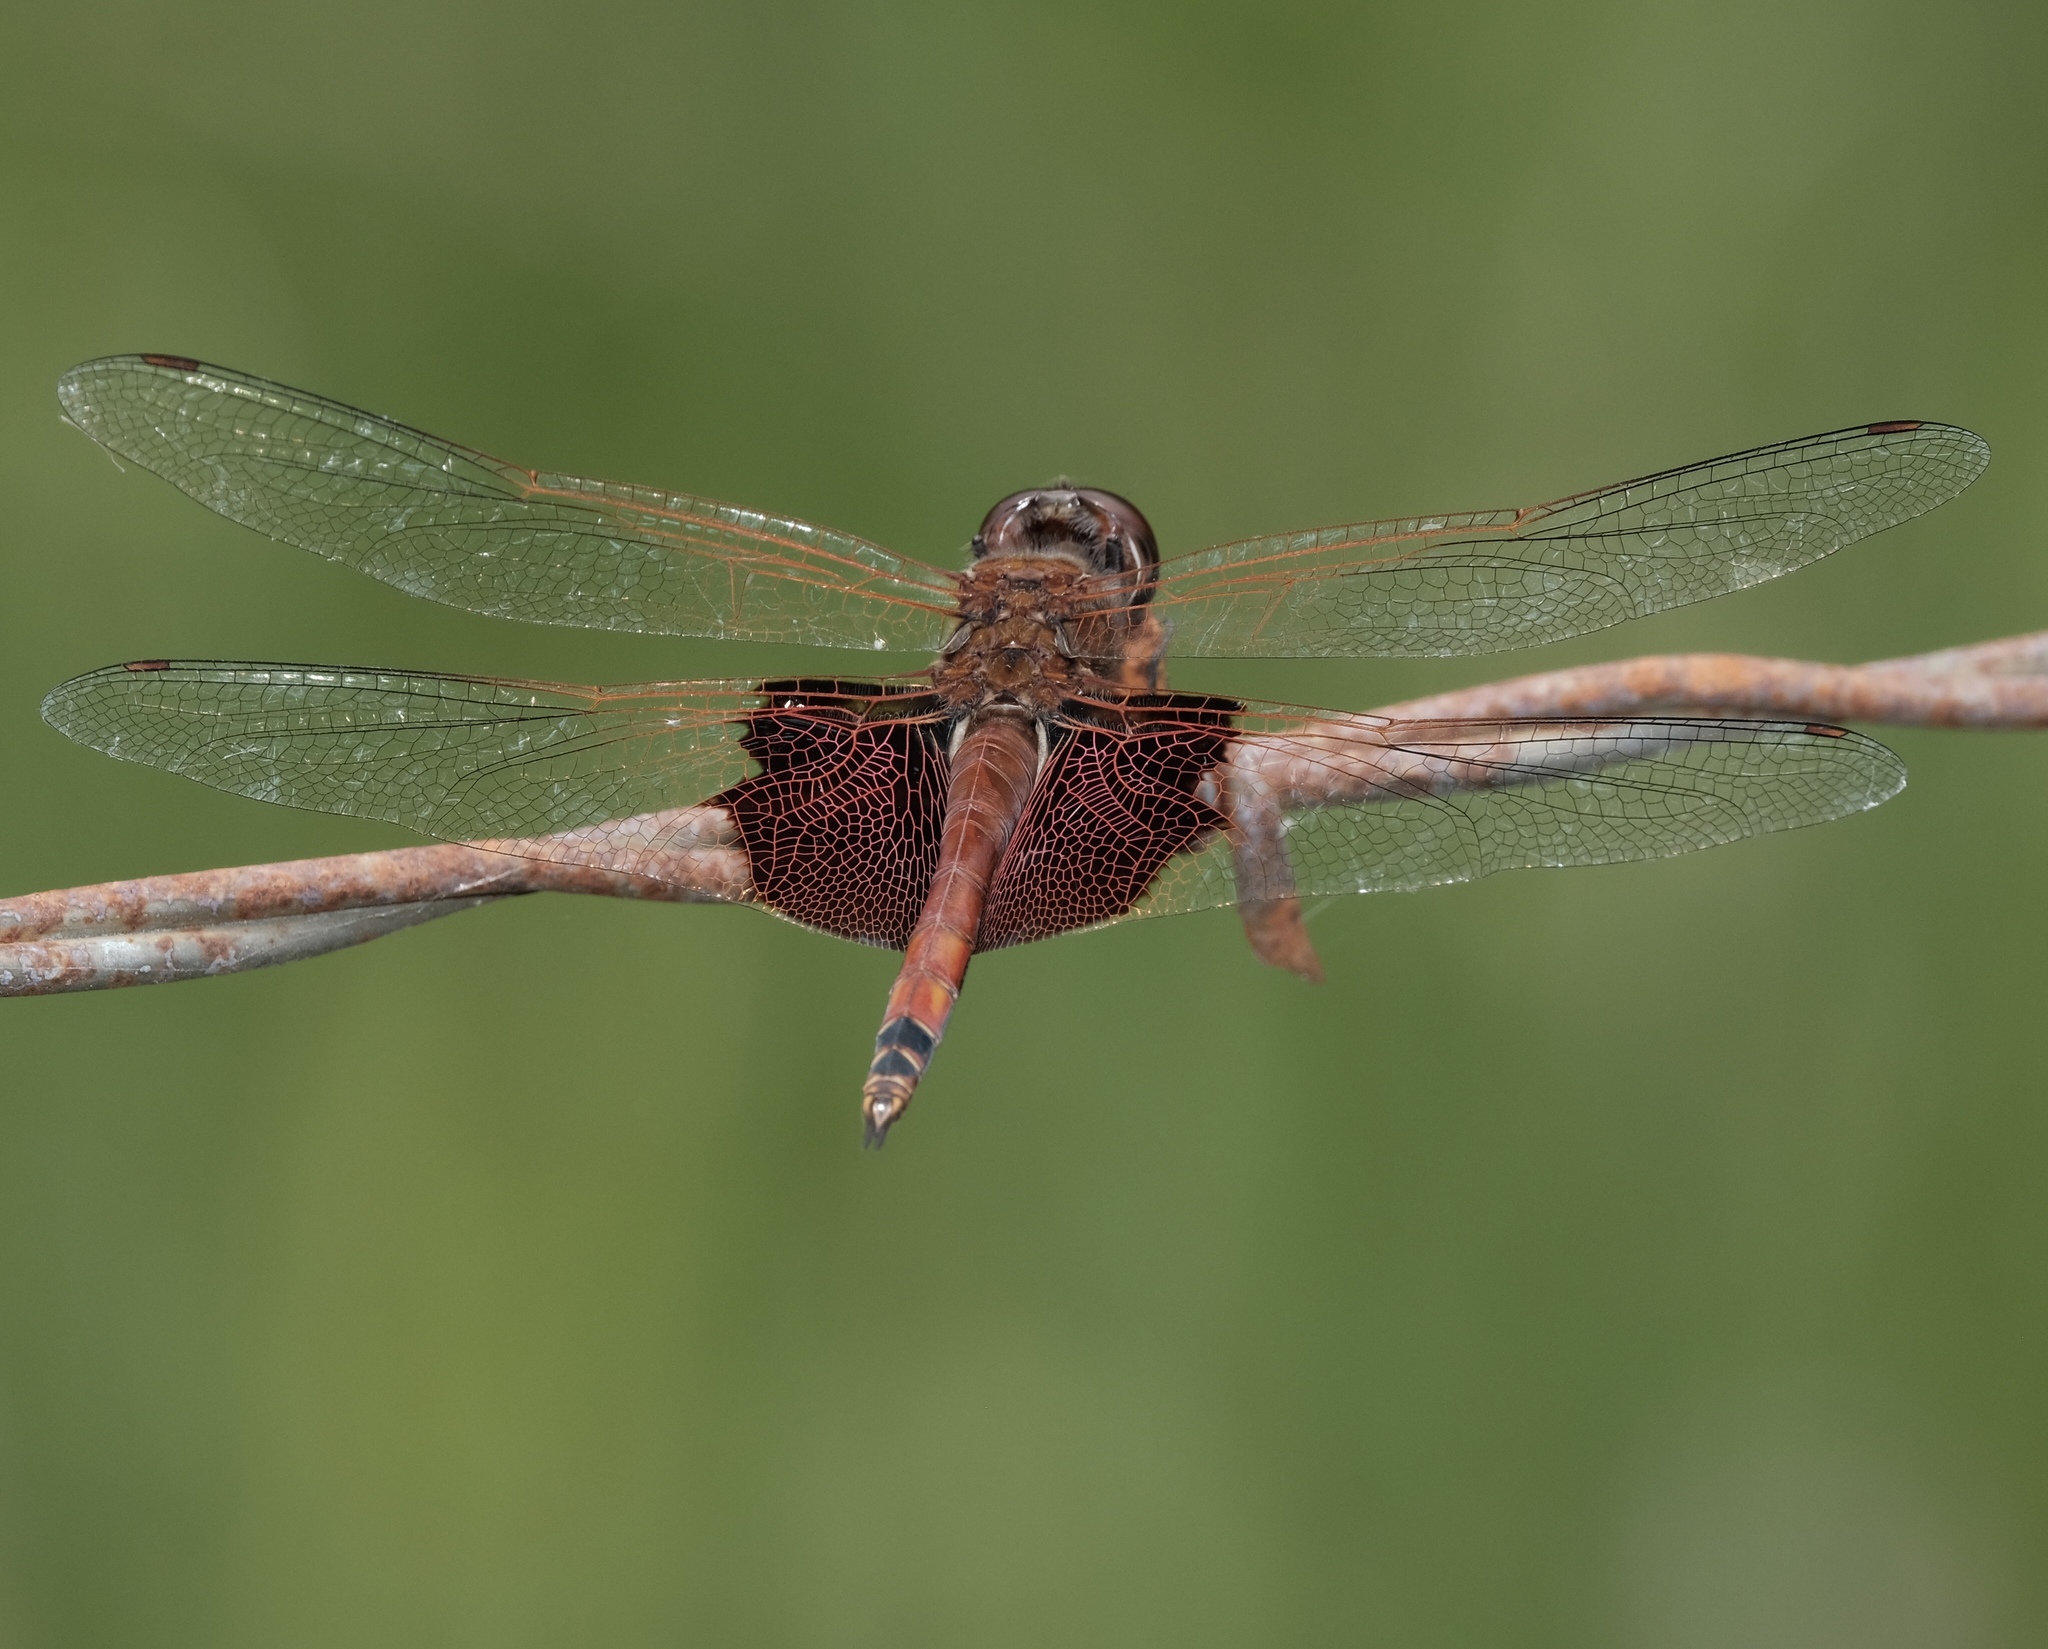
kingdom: Animalia
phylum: Arthropoda
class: Insecta
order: Odonata
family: Libellulidae
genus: Tramea
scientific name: Tramea carolina
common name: Carolina saddlebags
